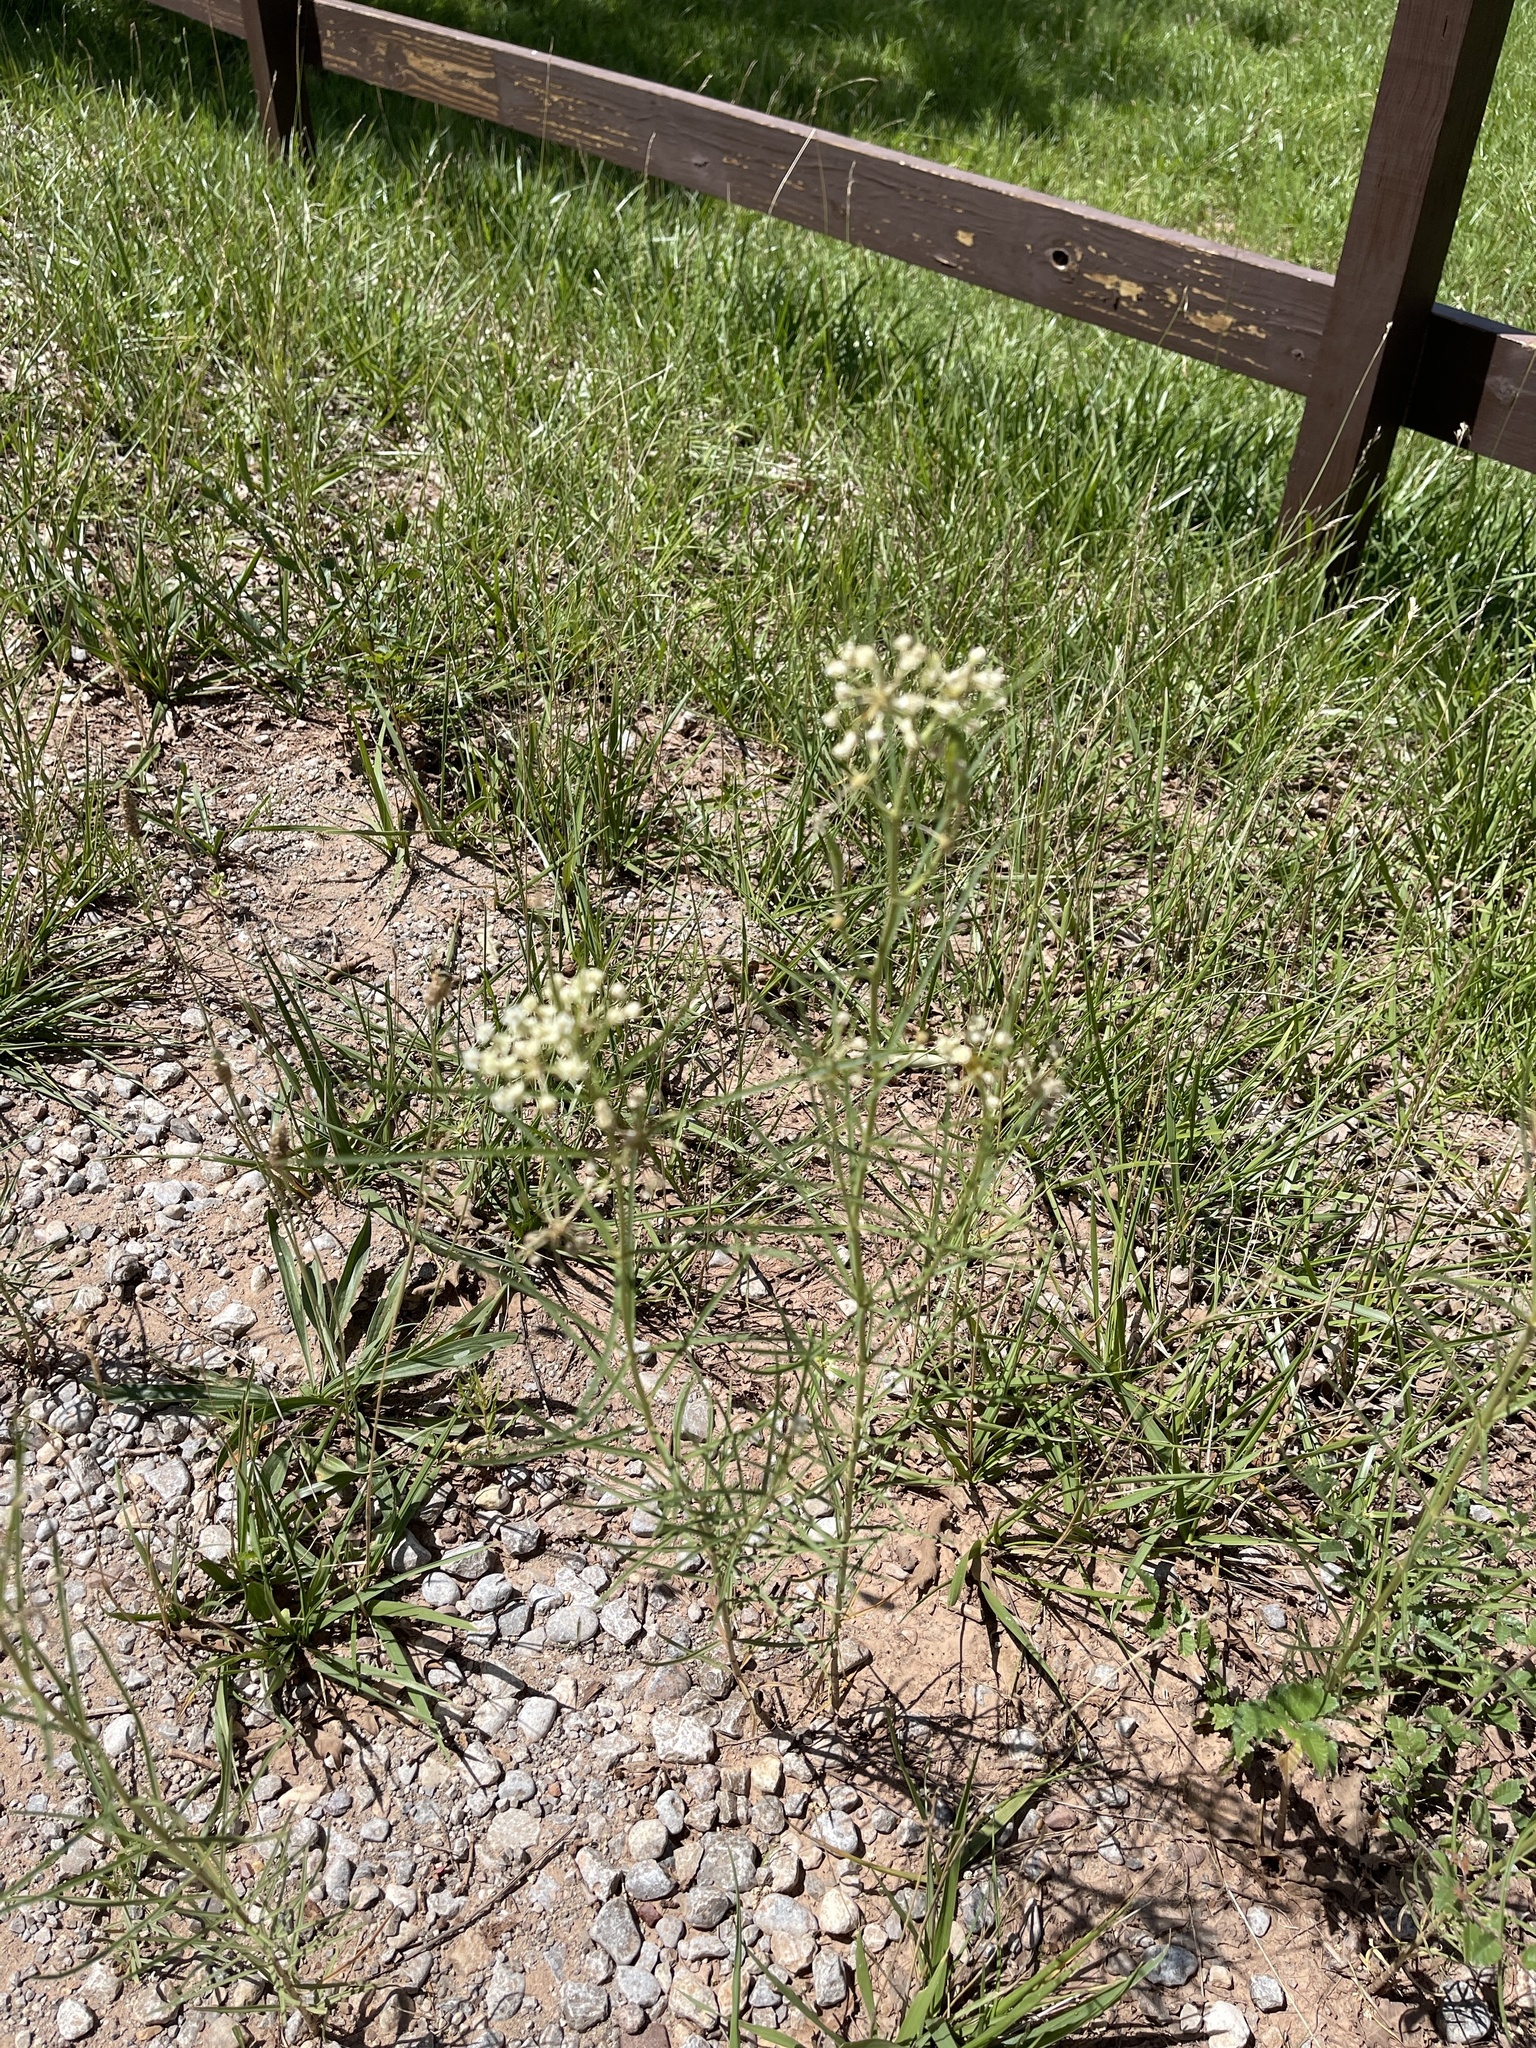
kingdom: Plantae
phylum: Tracheophyta
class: Magnoliopsida
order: Gentianales
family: Apocynaceae
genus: Asclepias
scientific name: Asclepias subverticillata
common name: Horsetail milkweed
